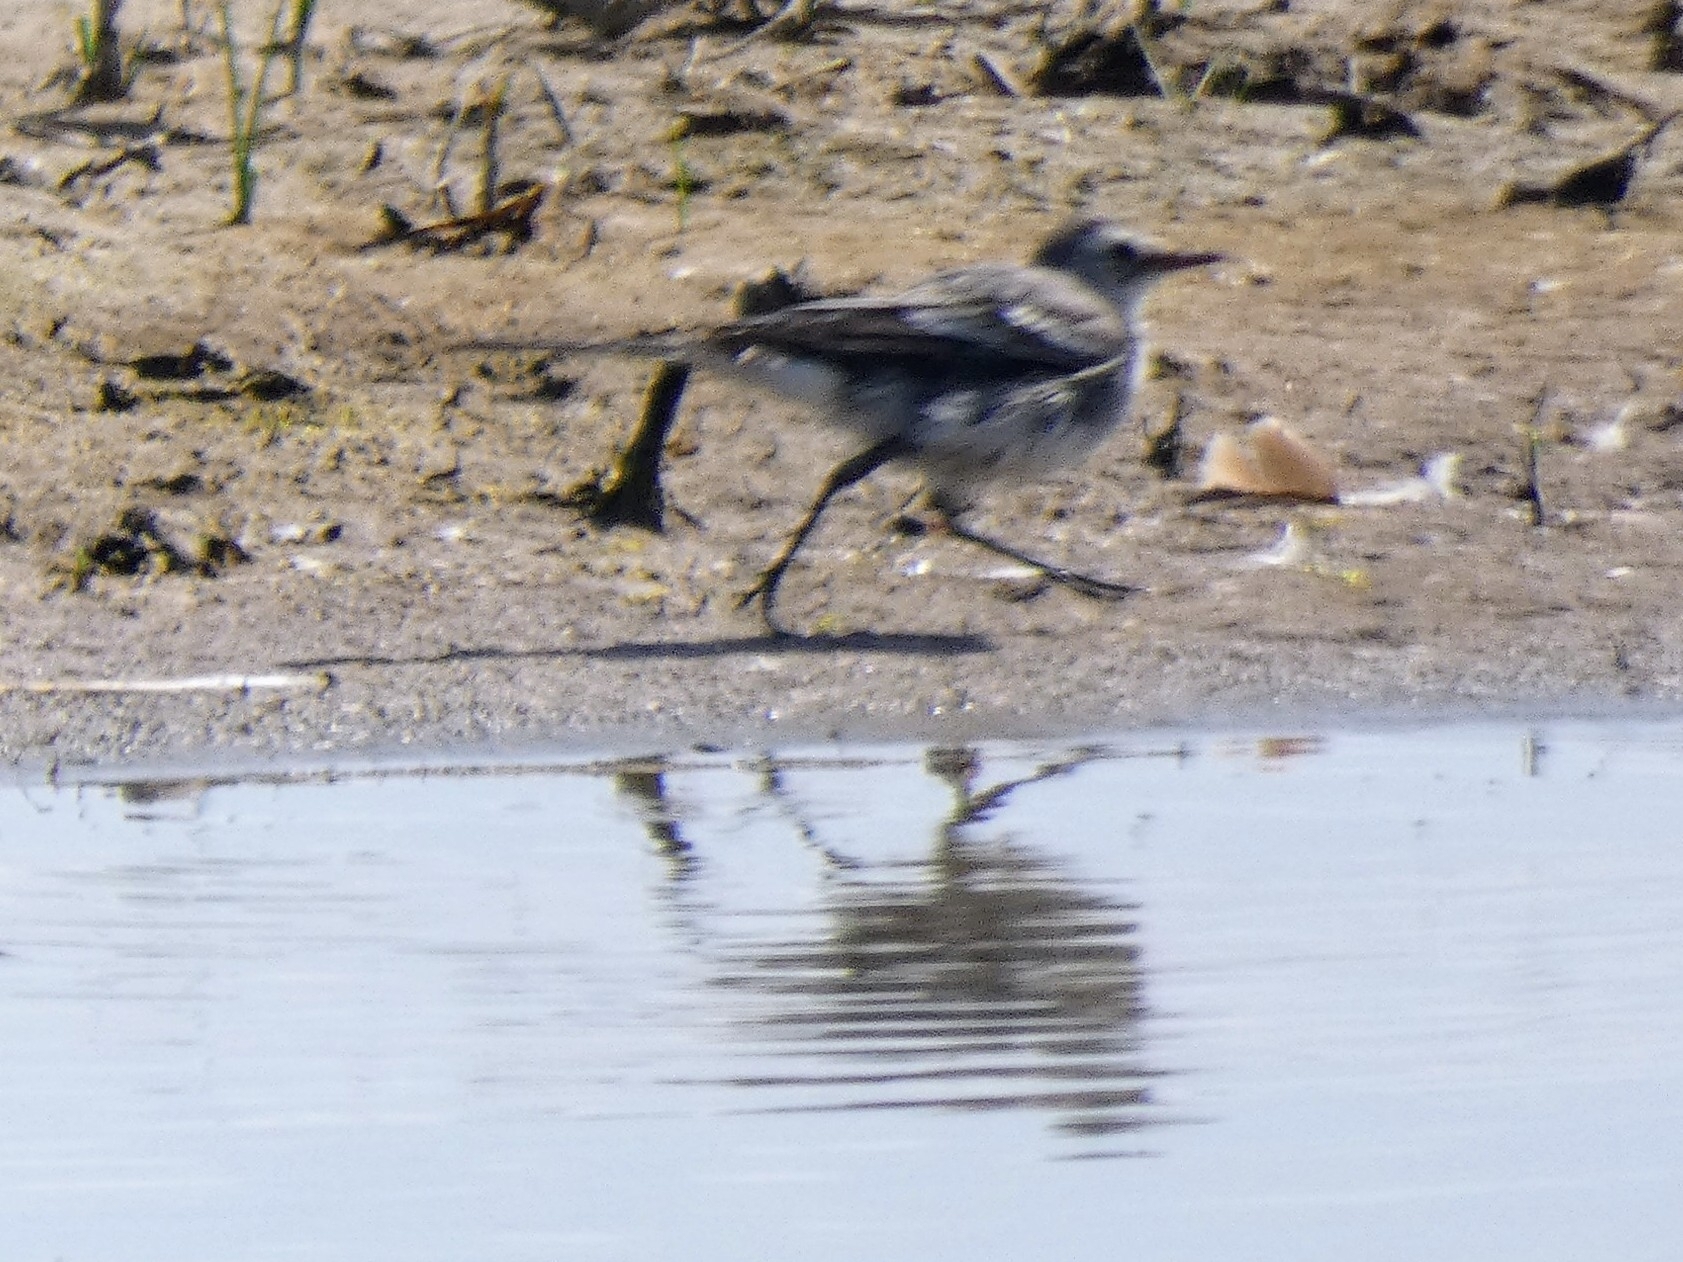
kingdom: Animalia
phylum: Chordata
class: Aves
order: Passeriformes
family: Motacillidae
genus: Motacilla
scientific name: Motacilla alba
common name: White wagtail
